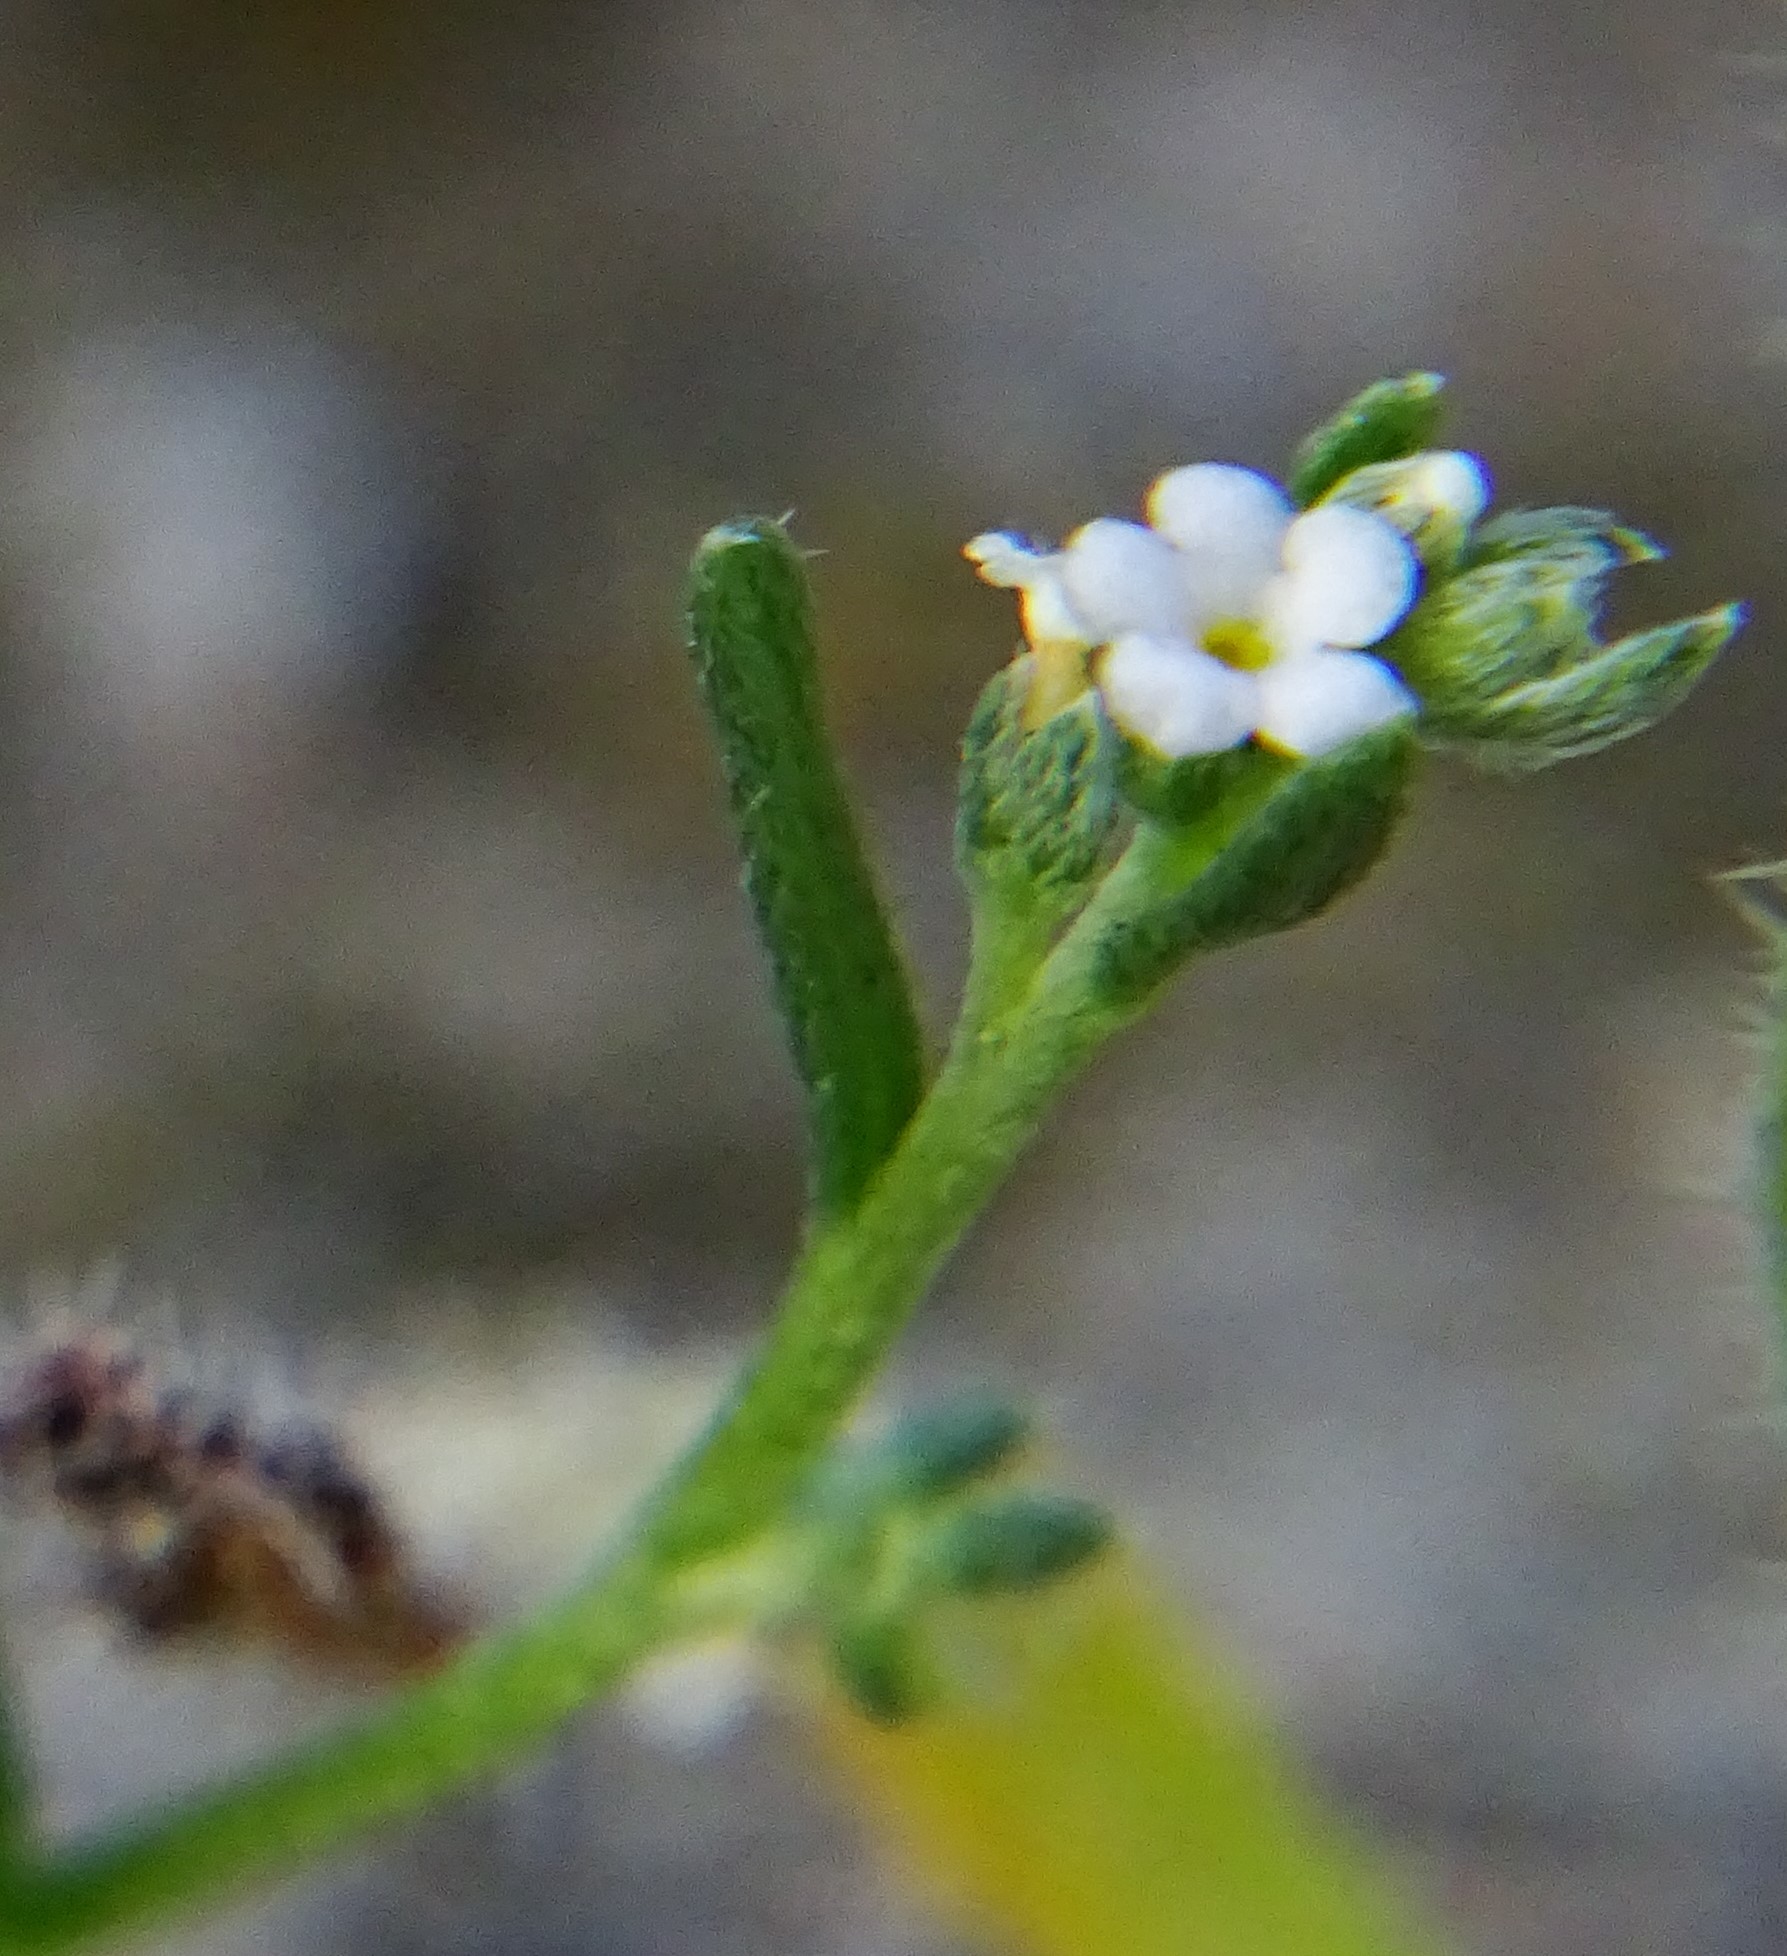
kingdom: Plantae
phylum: Tracheophyta
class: Magnoliopsida
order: Boraginales
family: Boraginaceae
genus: Pectocarya
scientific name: Pectocarya penicillata
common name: Short-leaved combseed
